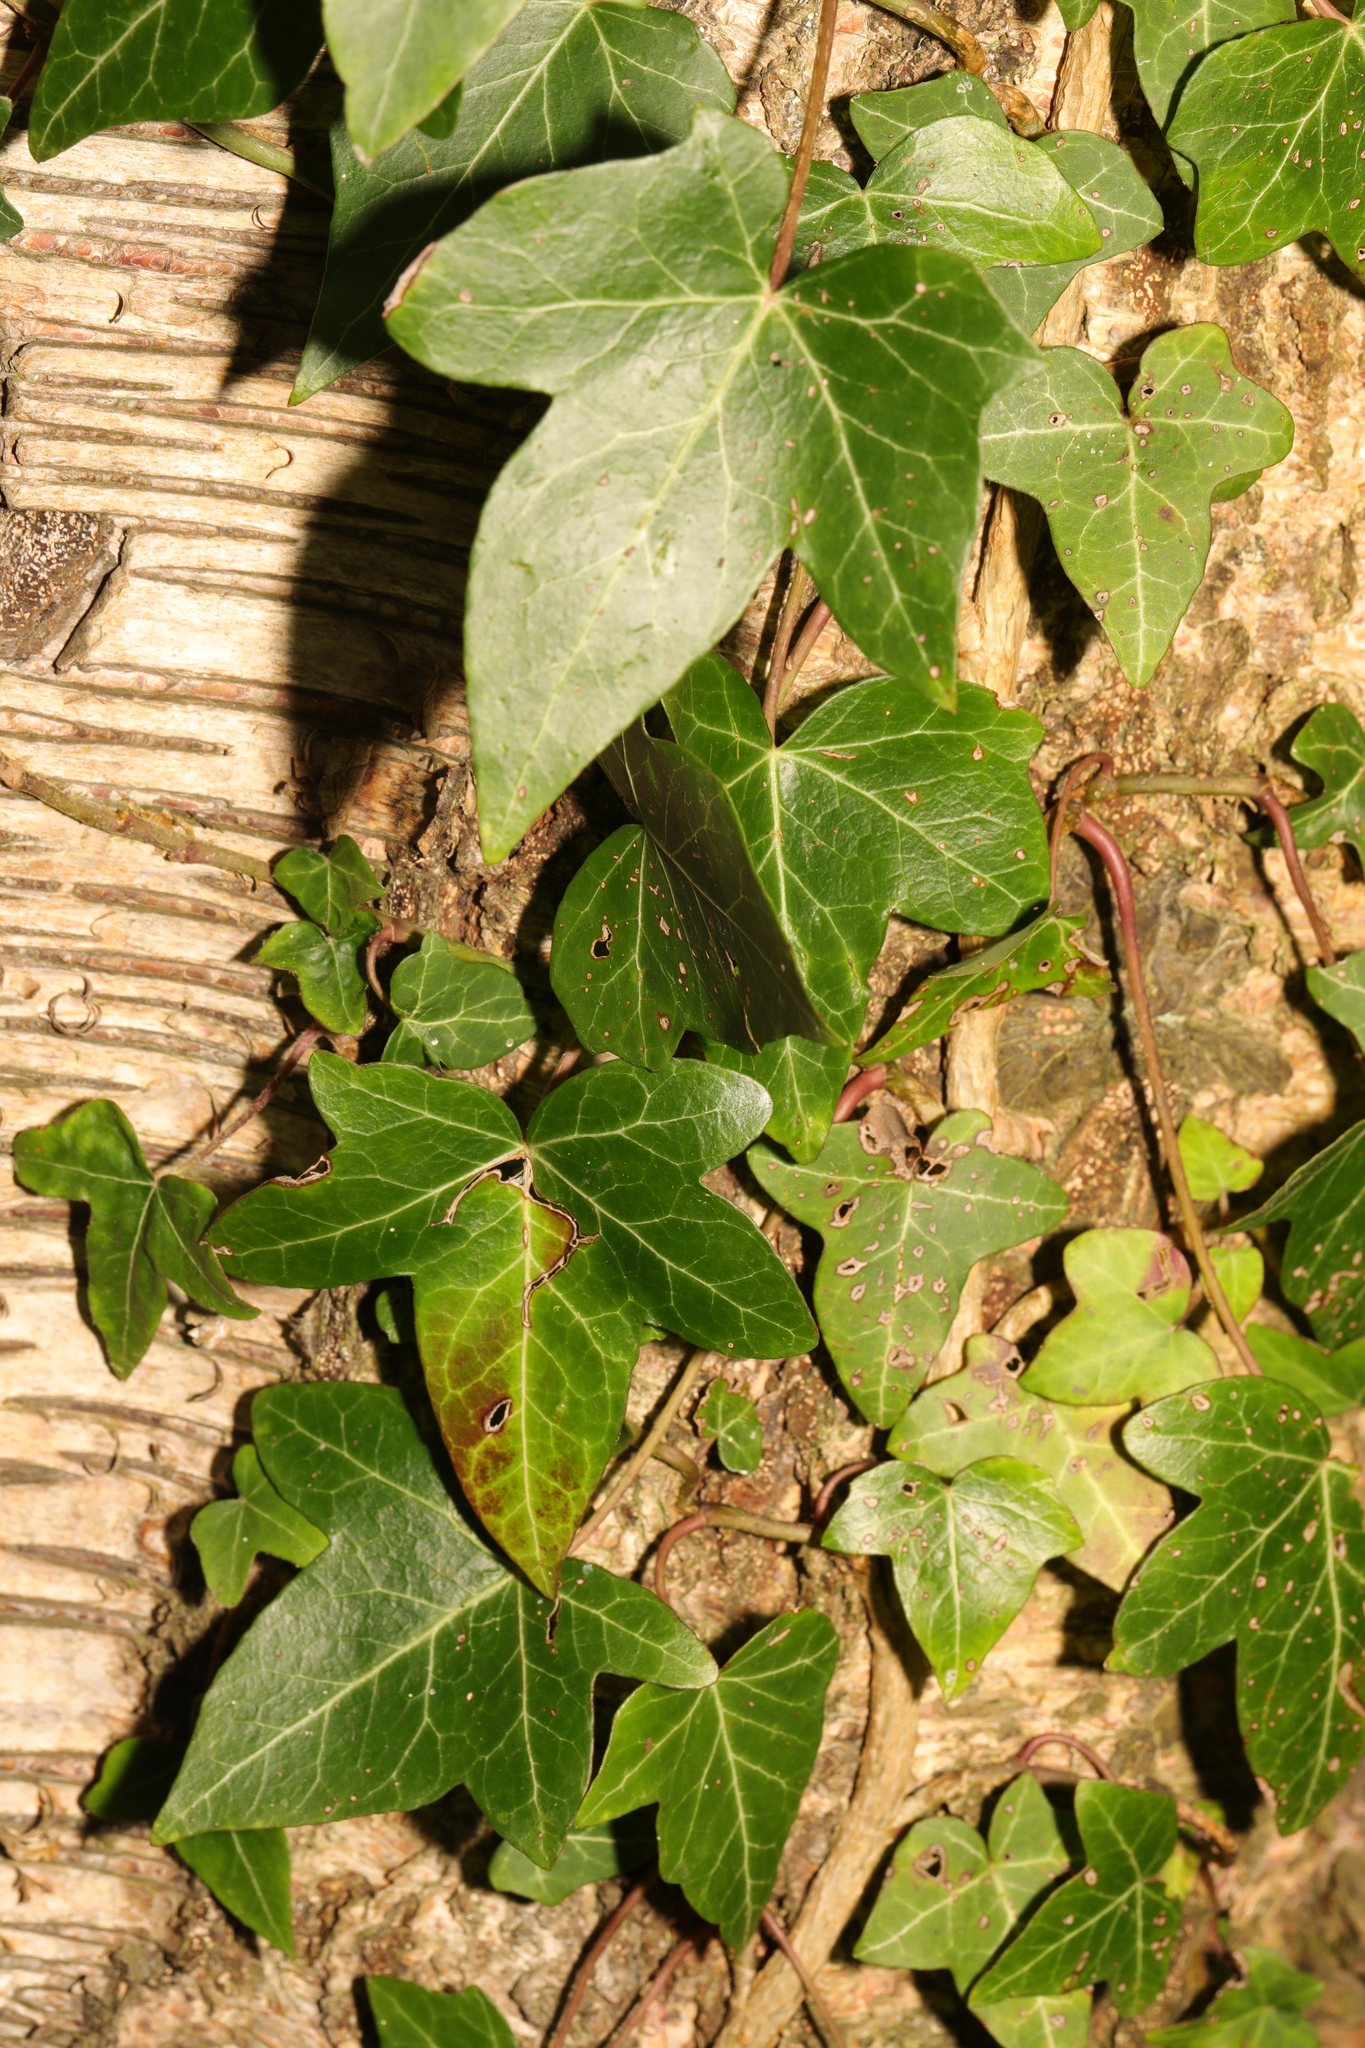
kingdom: Plantae
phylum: Tracheophyta
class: Magnoliopsida
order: Apiales
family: Araliaceae
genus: Hedera
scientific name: Hedera helix
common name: Ivy
